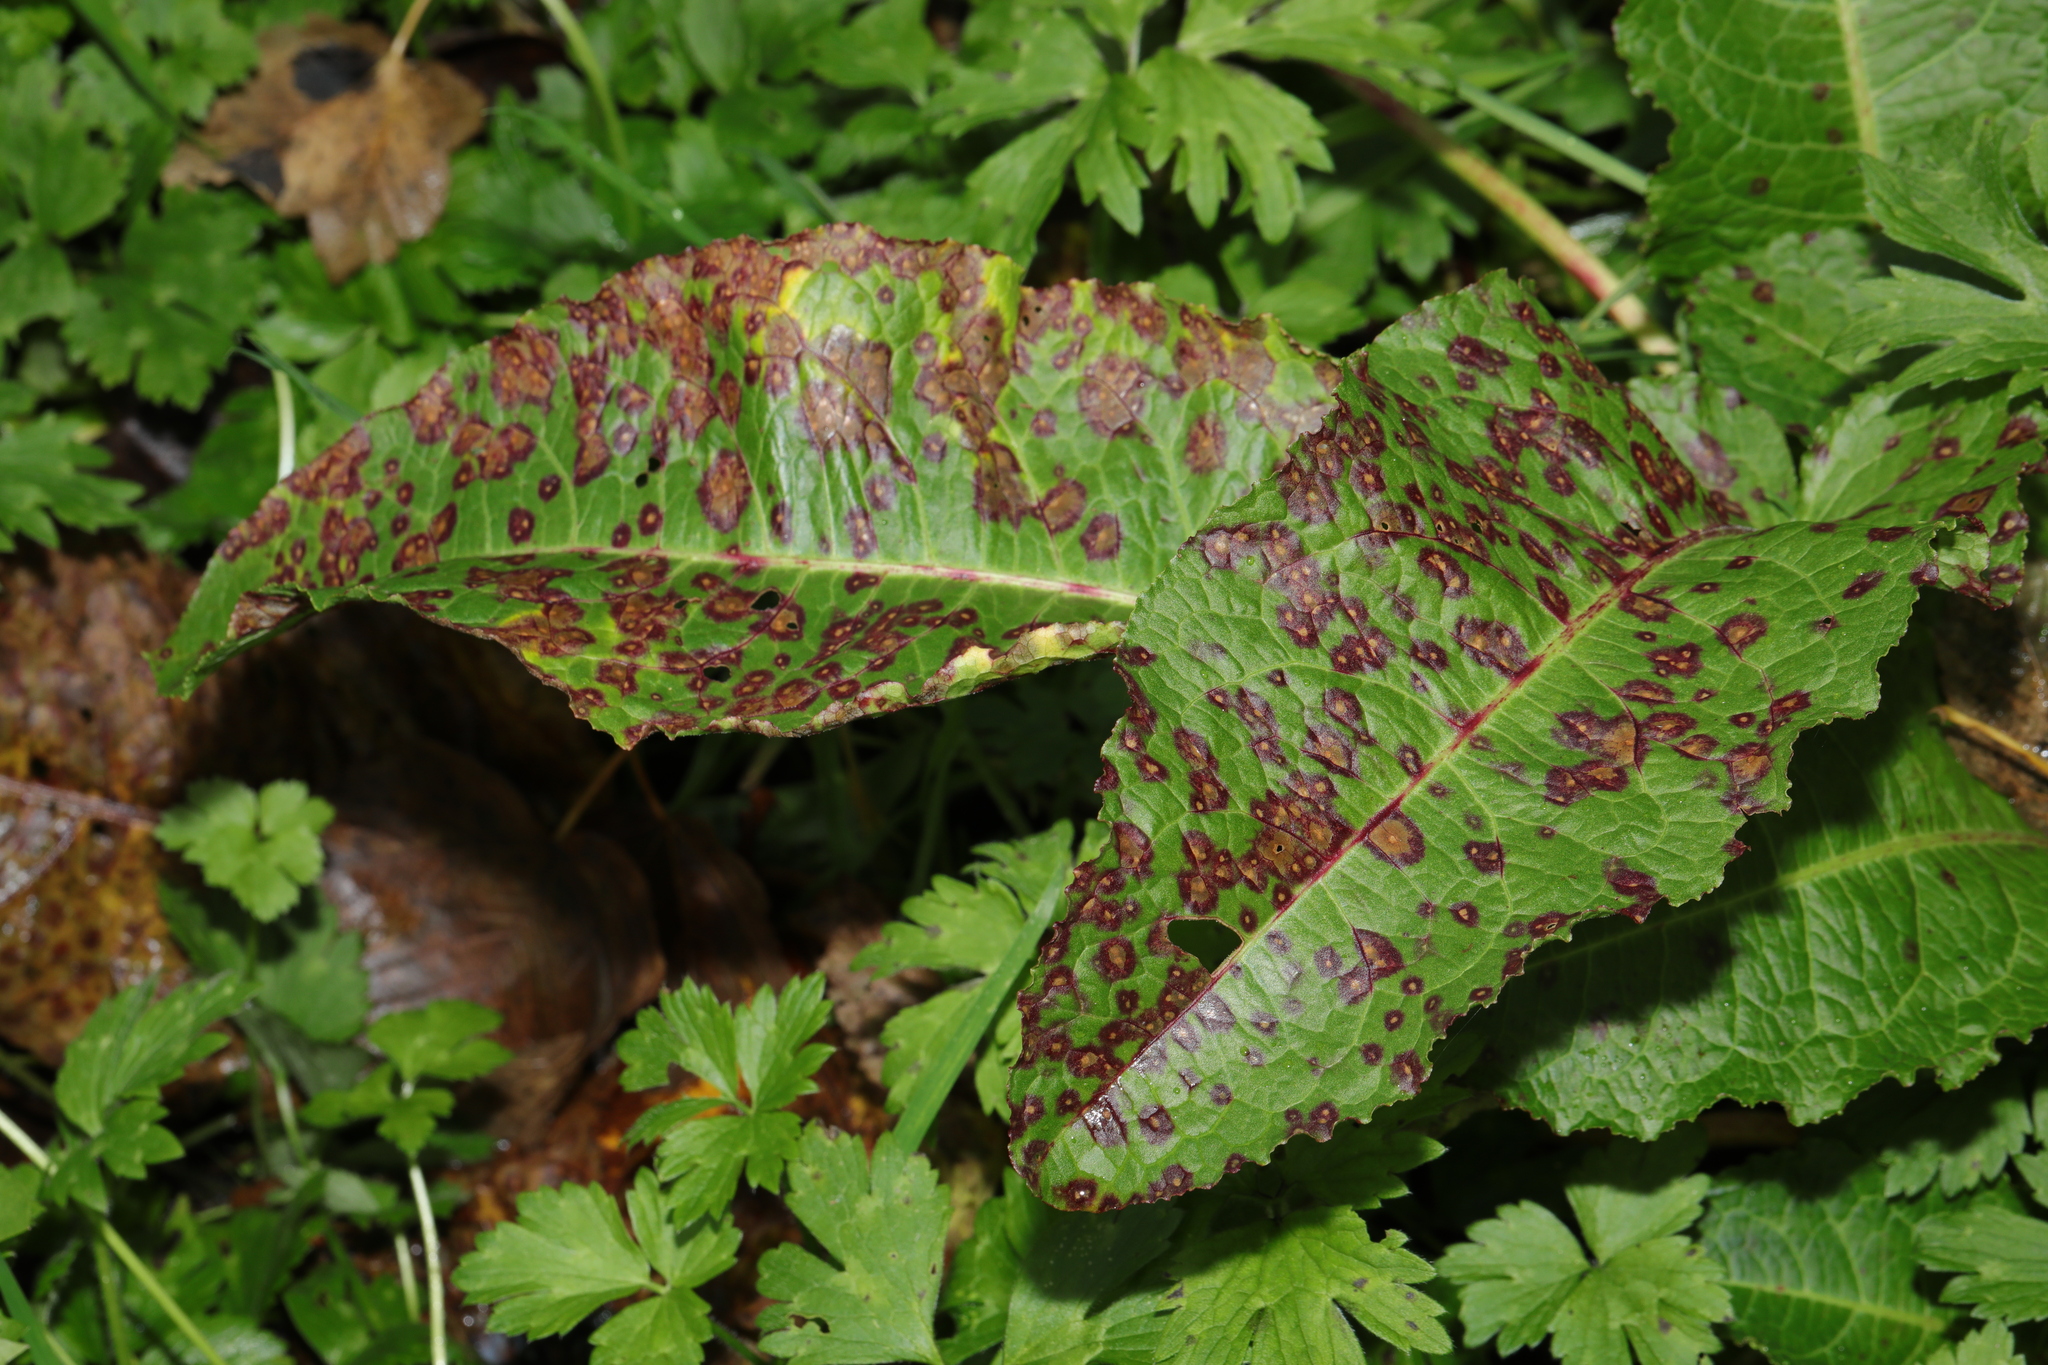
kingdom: Plantae
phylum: Tracheophyta
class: Magnoliopsida
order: Caryophyllales
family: Polygonaceae
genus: Rumex
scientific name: Rumex obtusifolius
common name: Bitter dock
